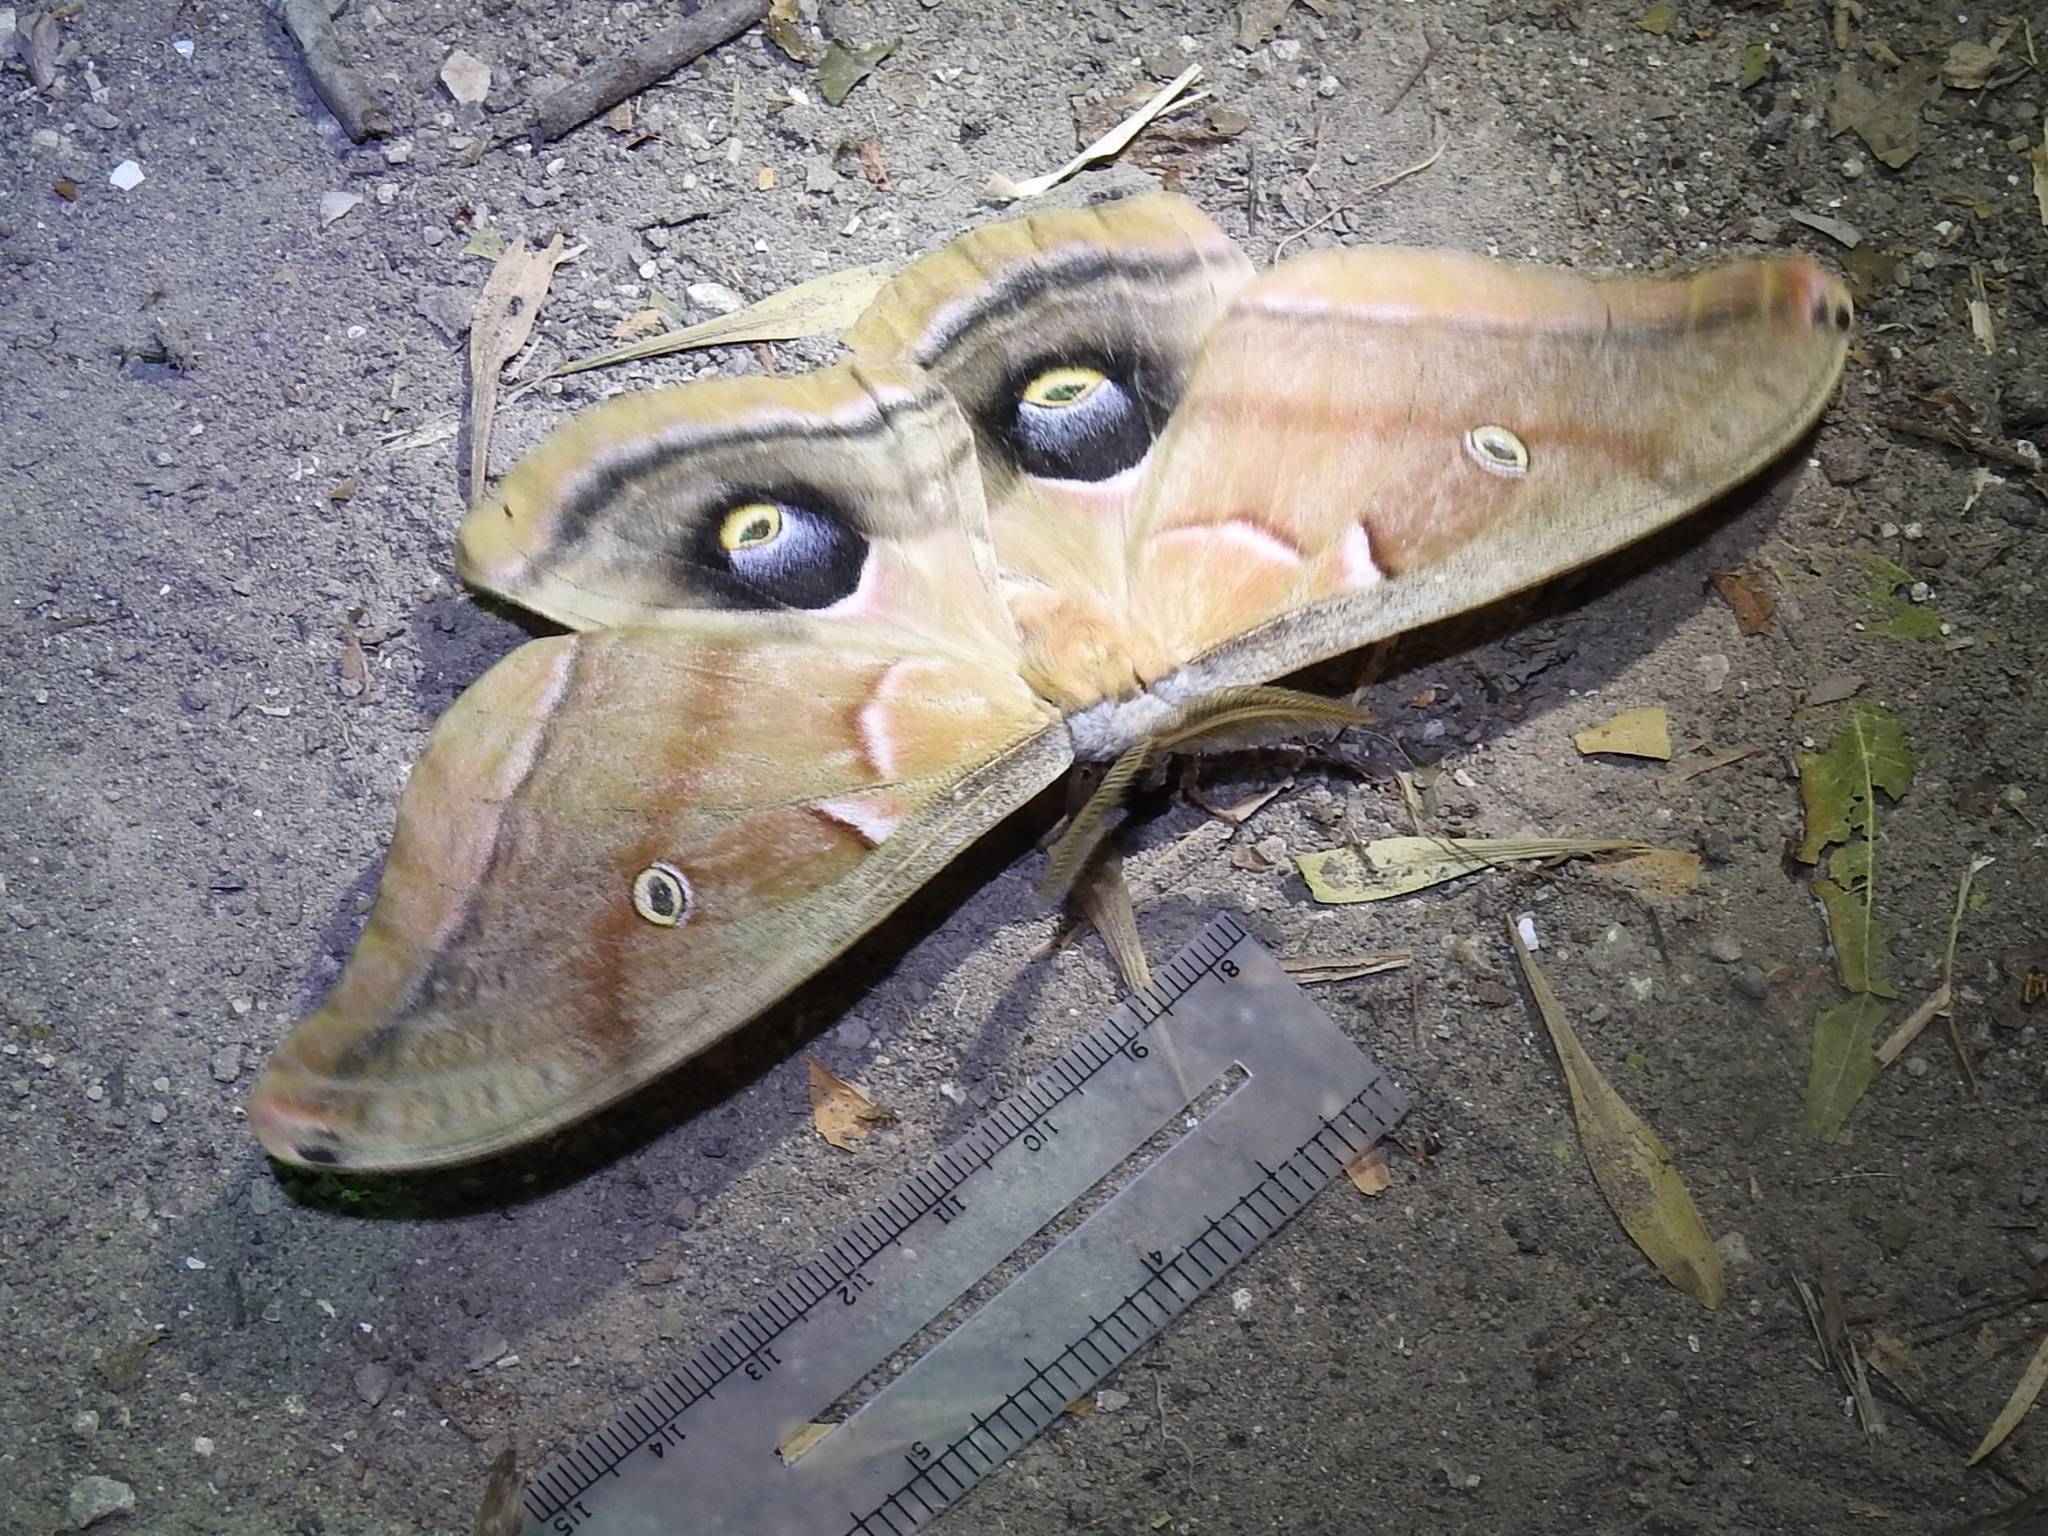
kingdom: Animalia
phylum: Arthropoda
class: Insecta
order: Lepidoptera
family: Saturniidae
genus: Antheraea
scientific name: Antheraea polyphemus
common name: Polyphemus moth
